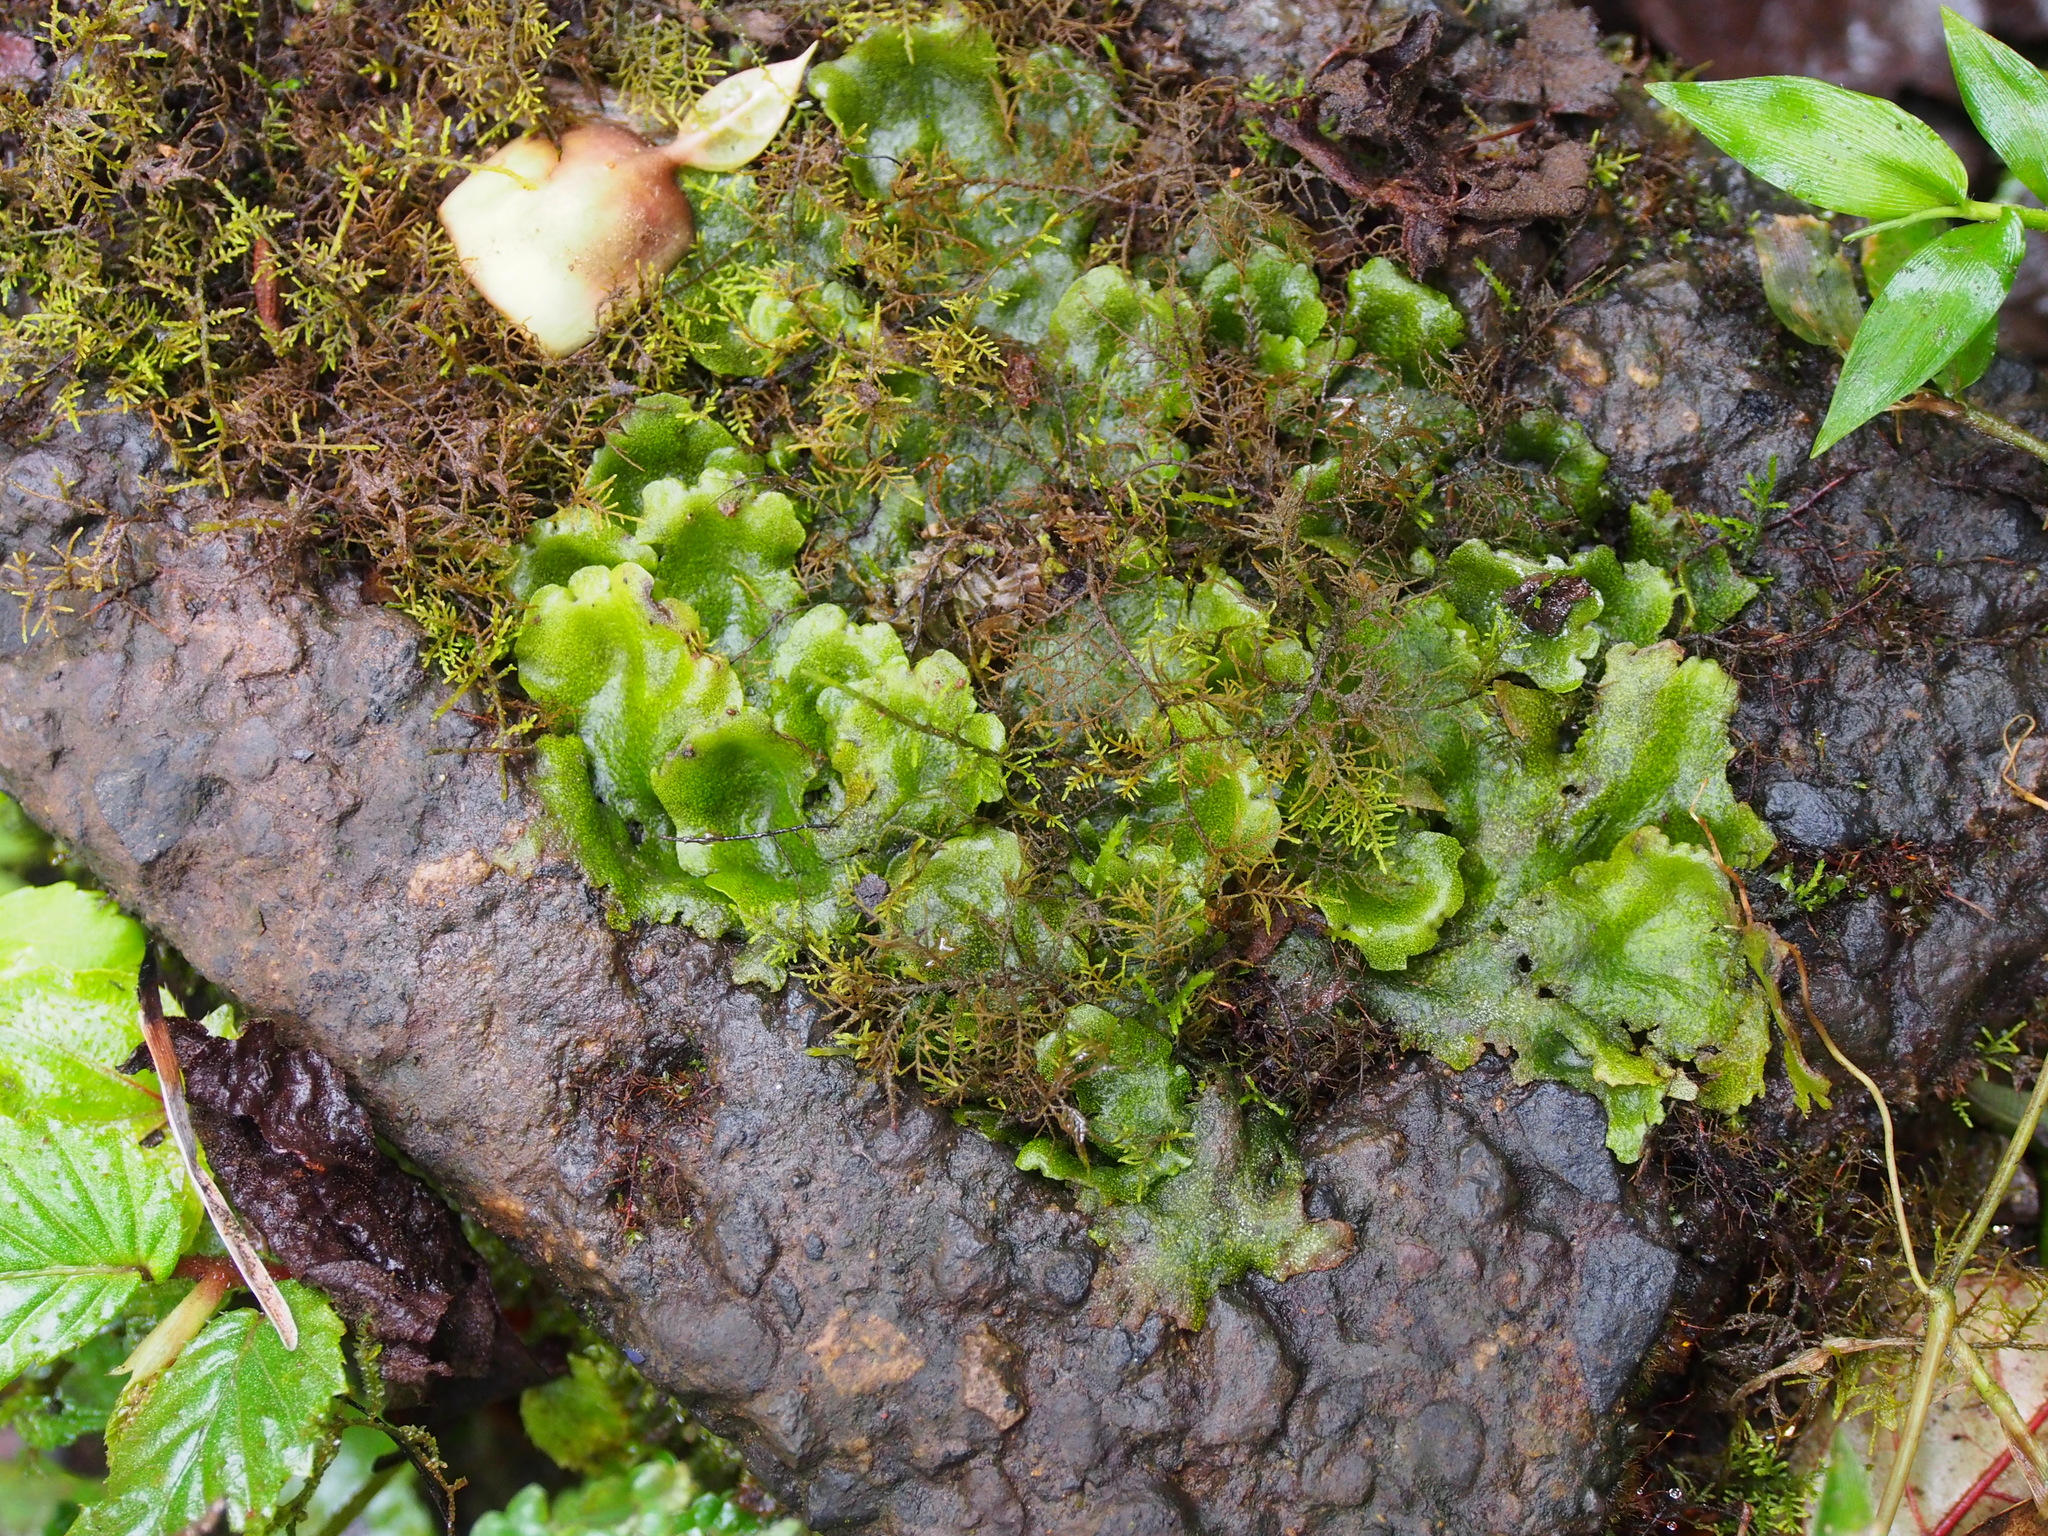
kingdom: Plantae
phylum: Marchantiophyta
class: Marchantiopsida
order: Marchantiales
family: Monocleaceae
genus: Monoclea
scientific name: Monoclea gottschei
